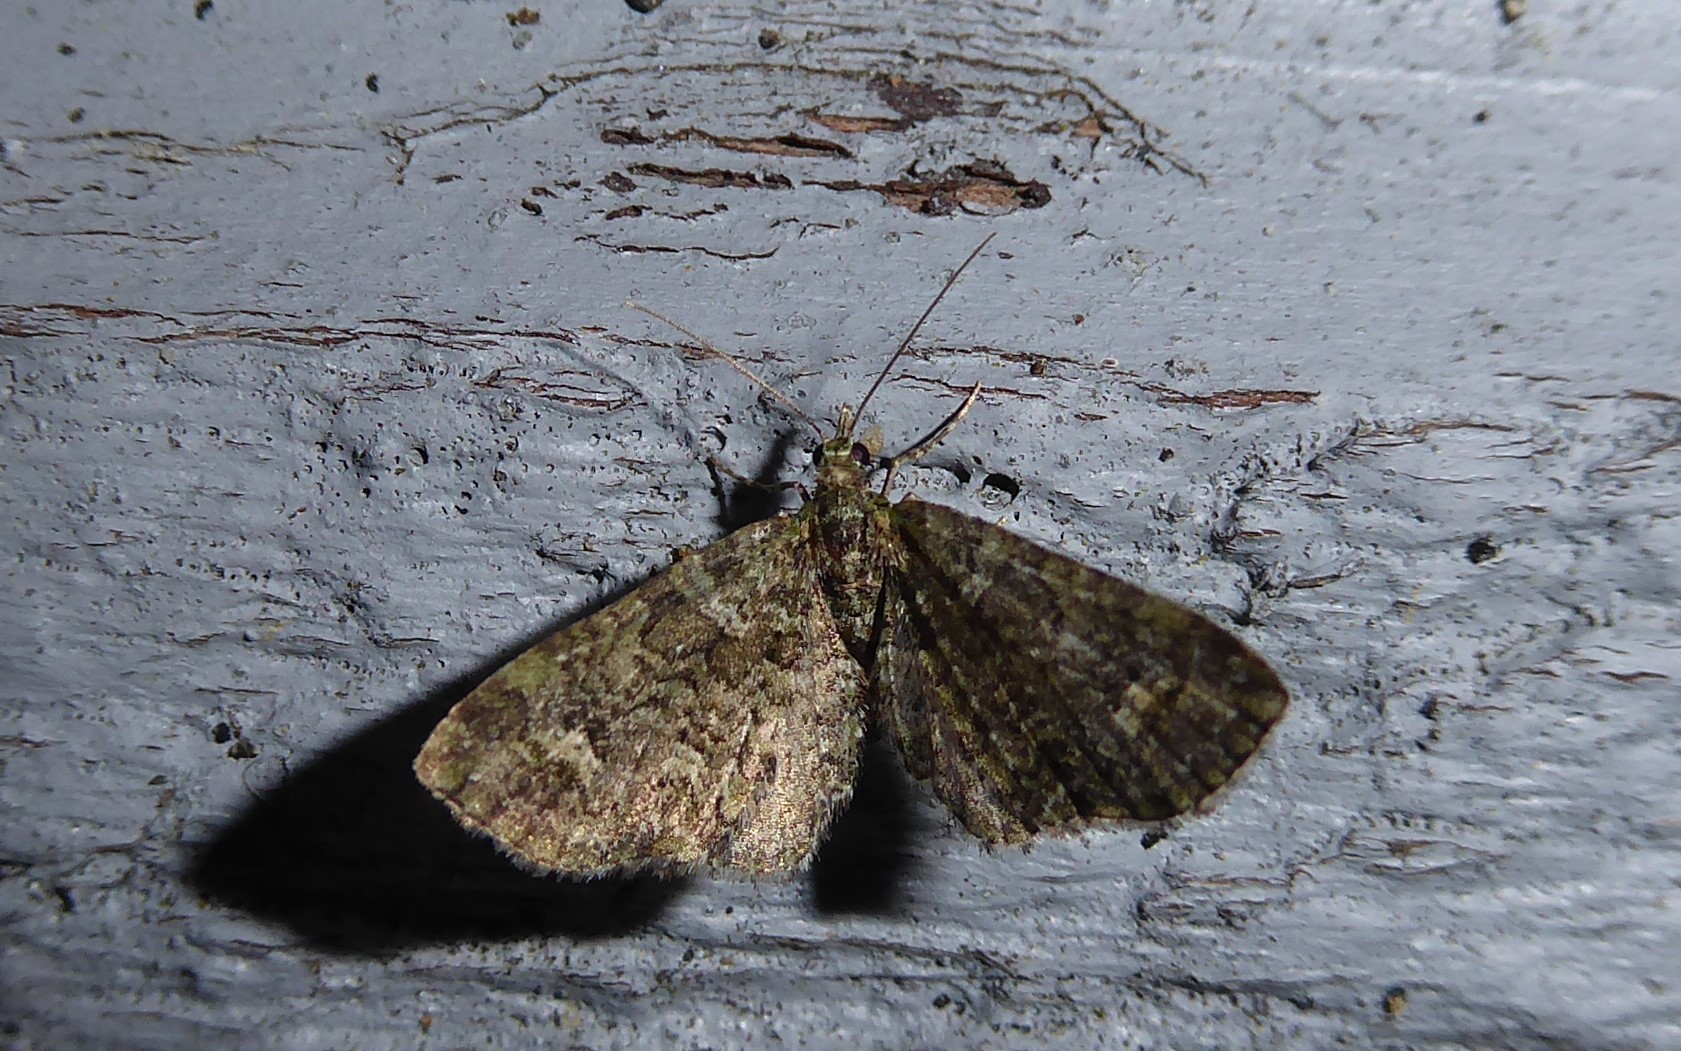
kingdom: Animalia
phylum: Arthropoda
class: Insecta
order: Lepidoptera
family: Geometridae
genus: Idaea
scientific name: Idaea mutanda
